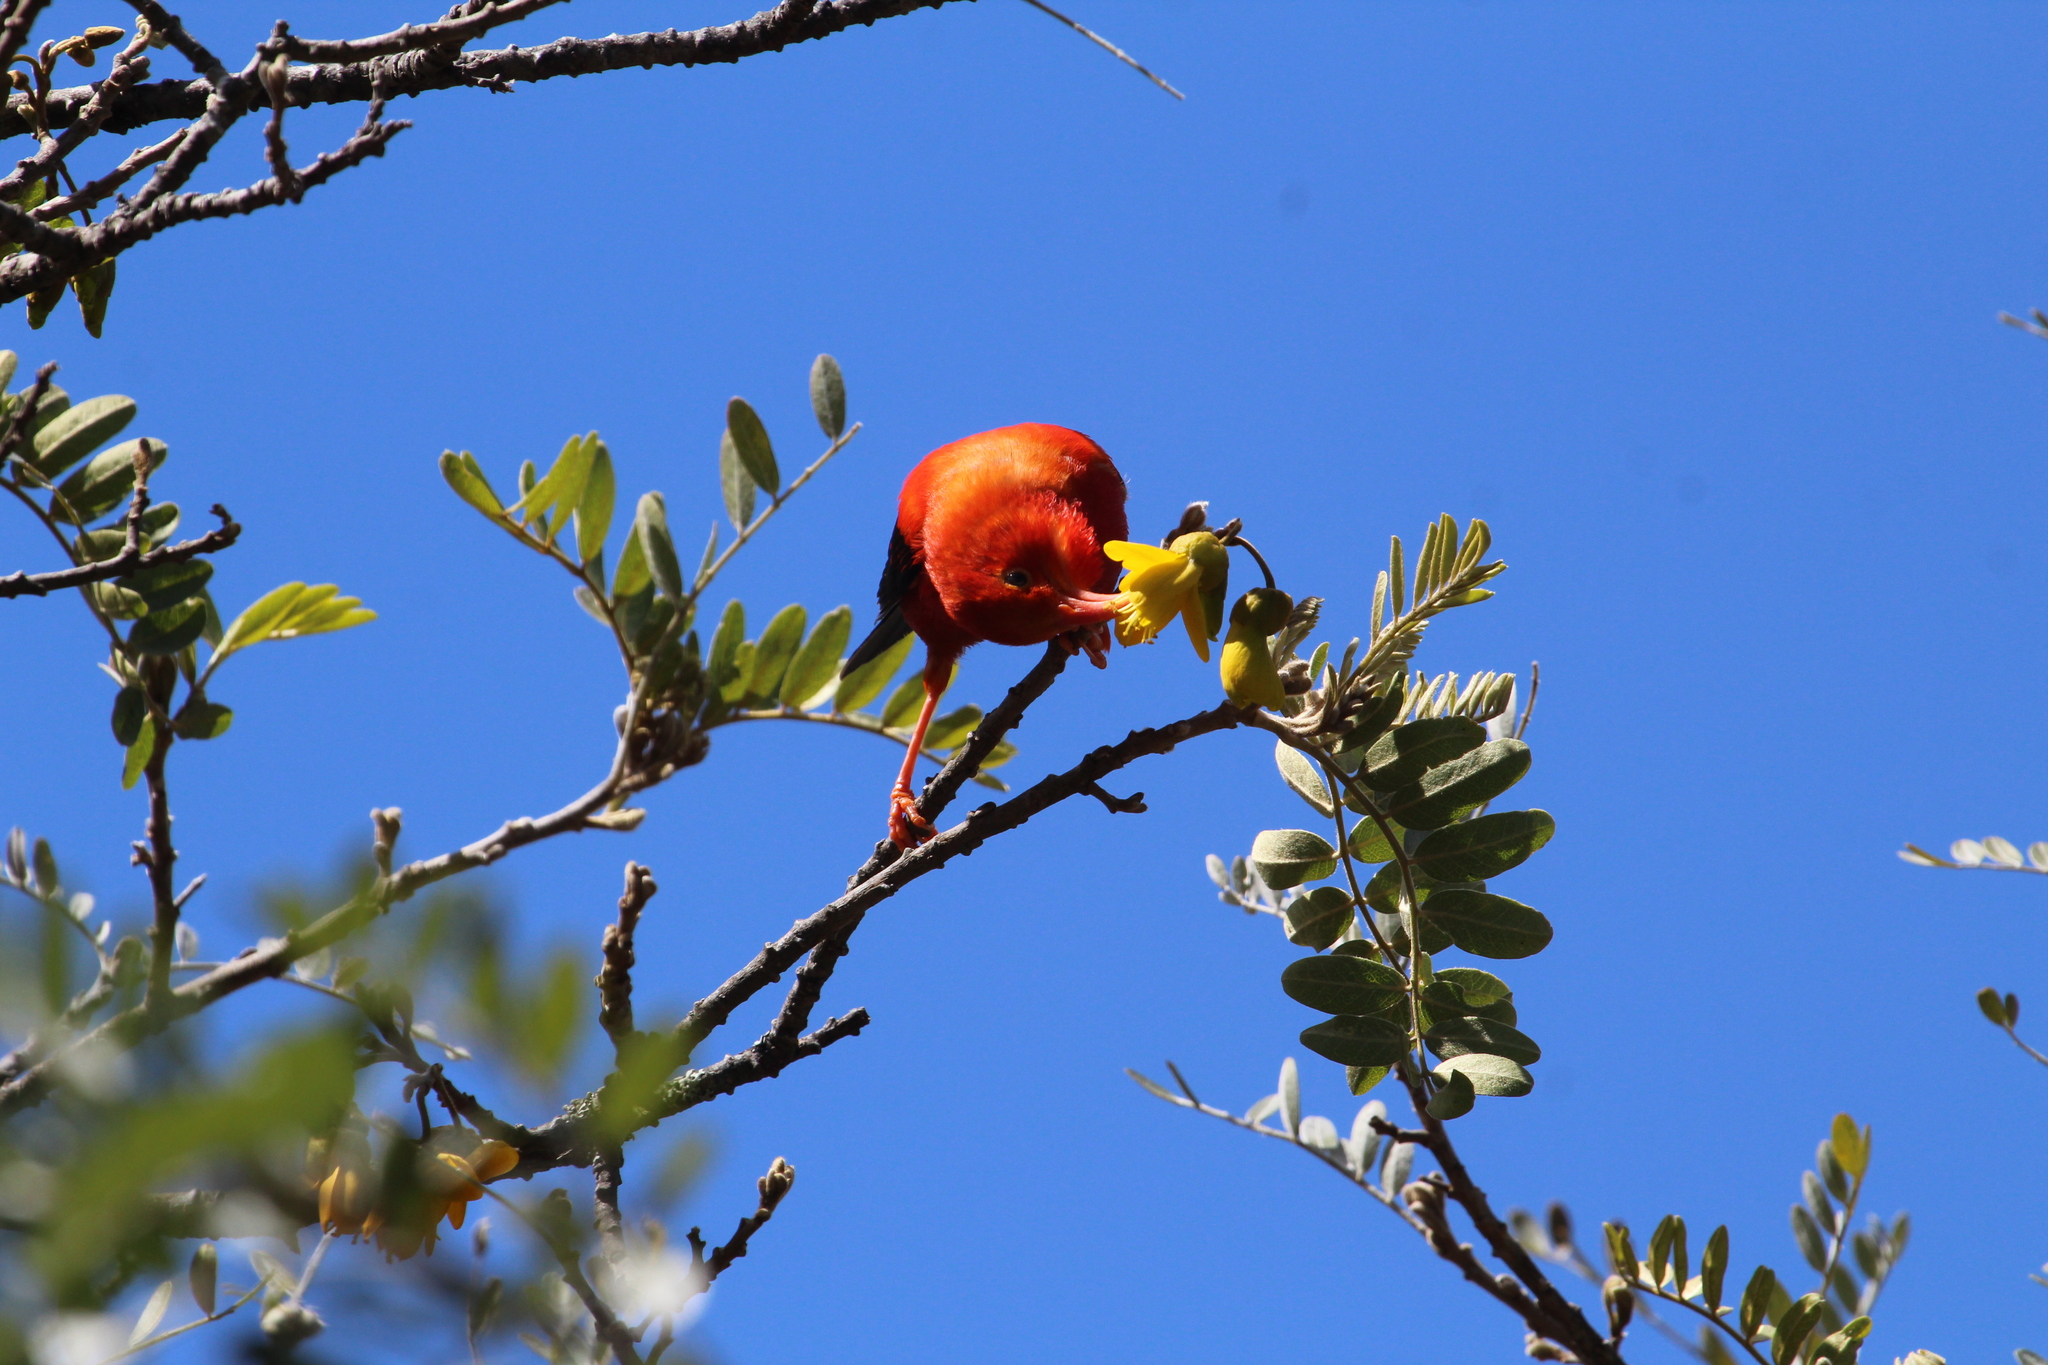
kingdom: Animalia
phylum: Chordata
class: Aves
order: Passeriformes
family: Fringillidae
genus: Vestiaria
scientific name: Vestiaria coccinea
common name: Iiwi
